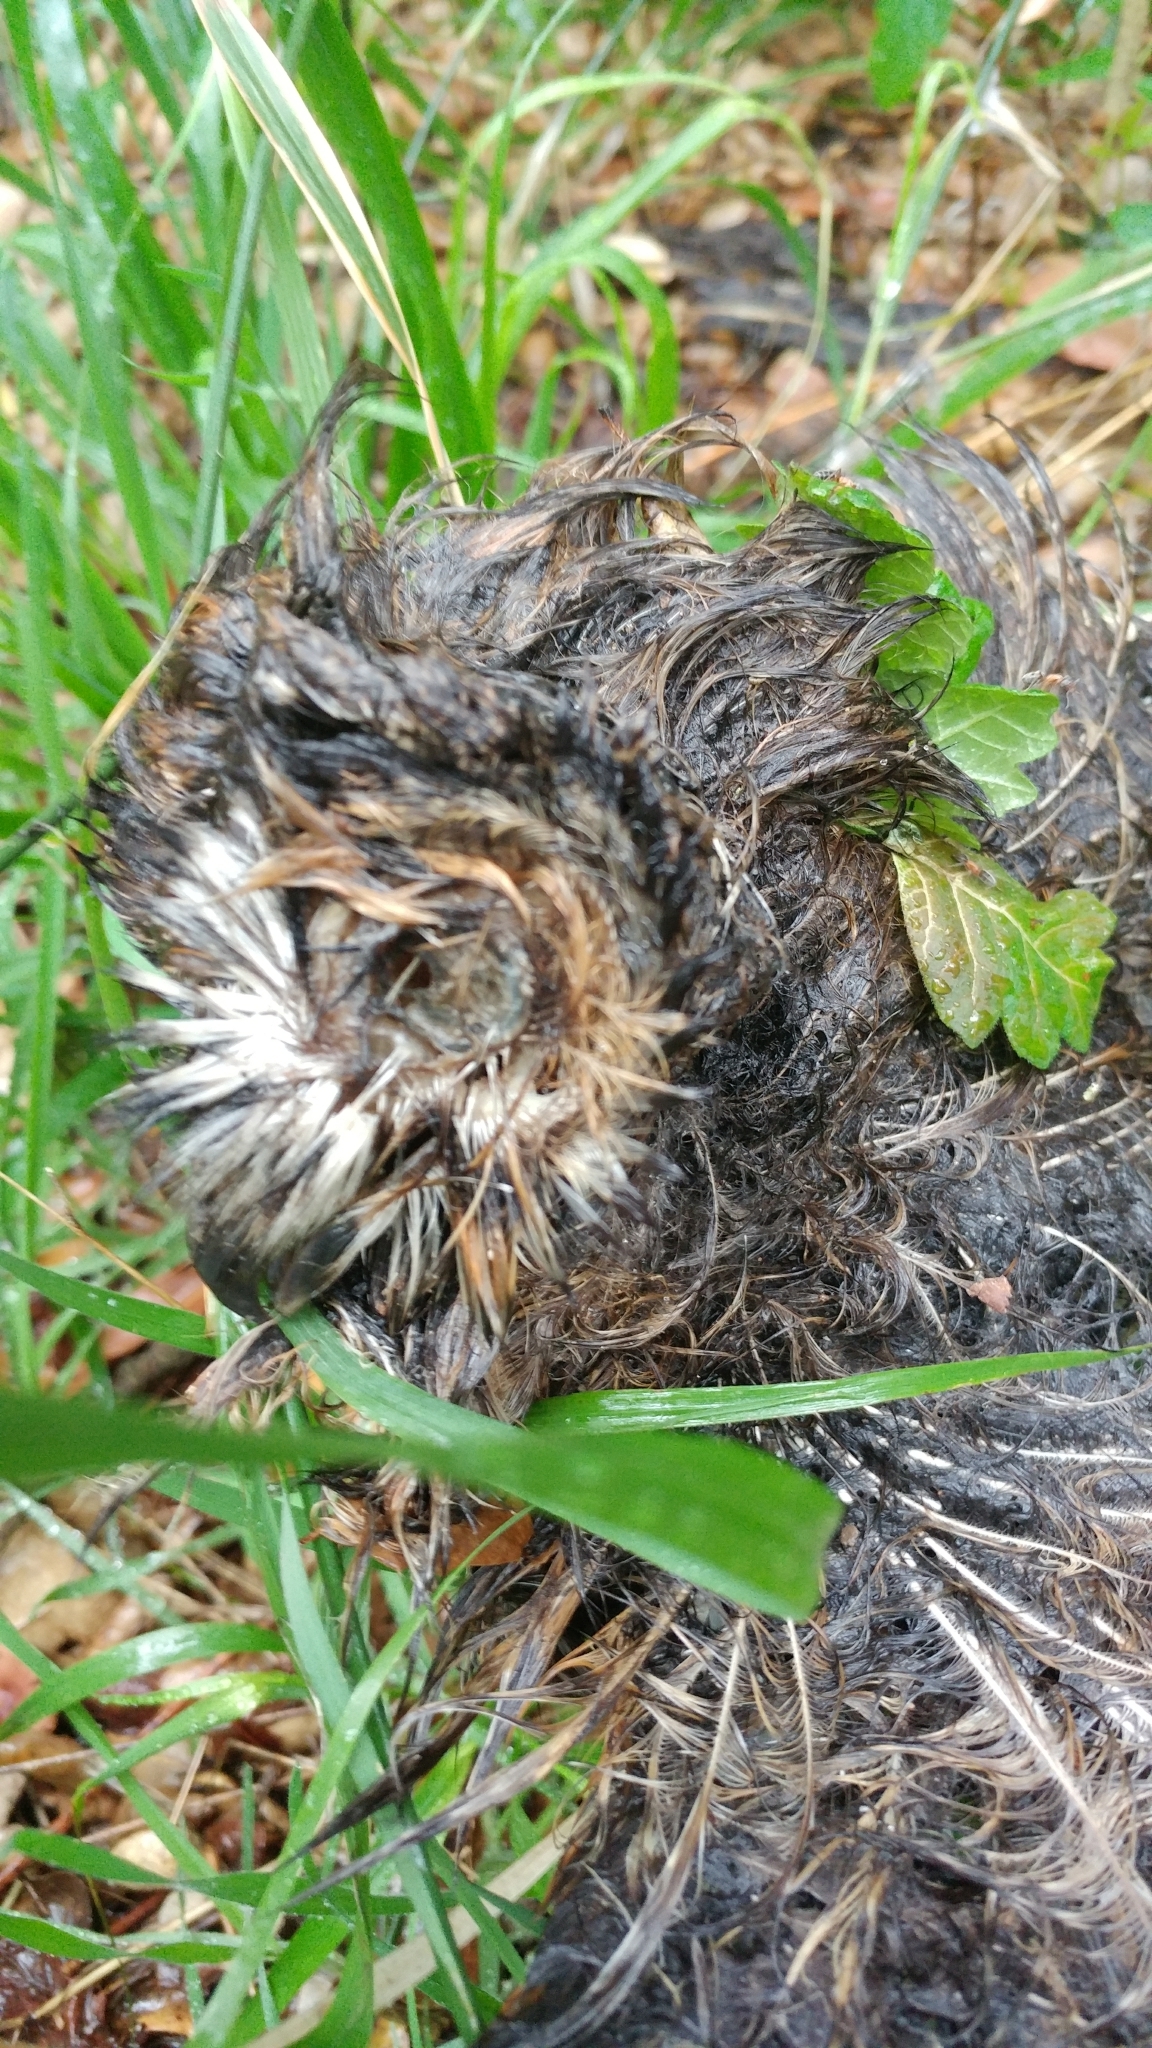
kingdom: Animalia
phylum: Chordata
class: Aves
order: Strigiformes
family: Strigidae
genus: Asio
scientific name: Asio otus
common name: Long-eared owl
